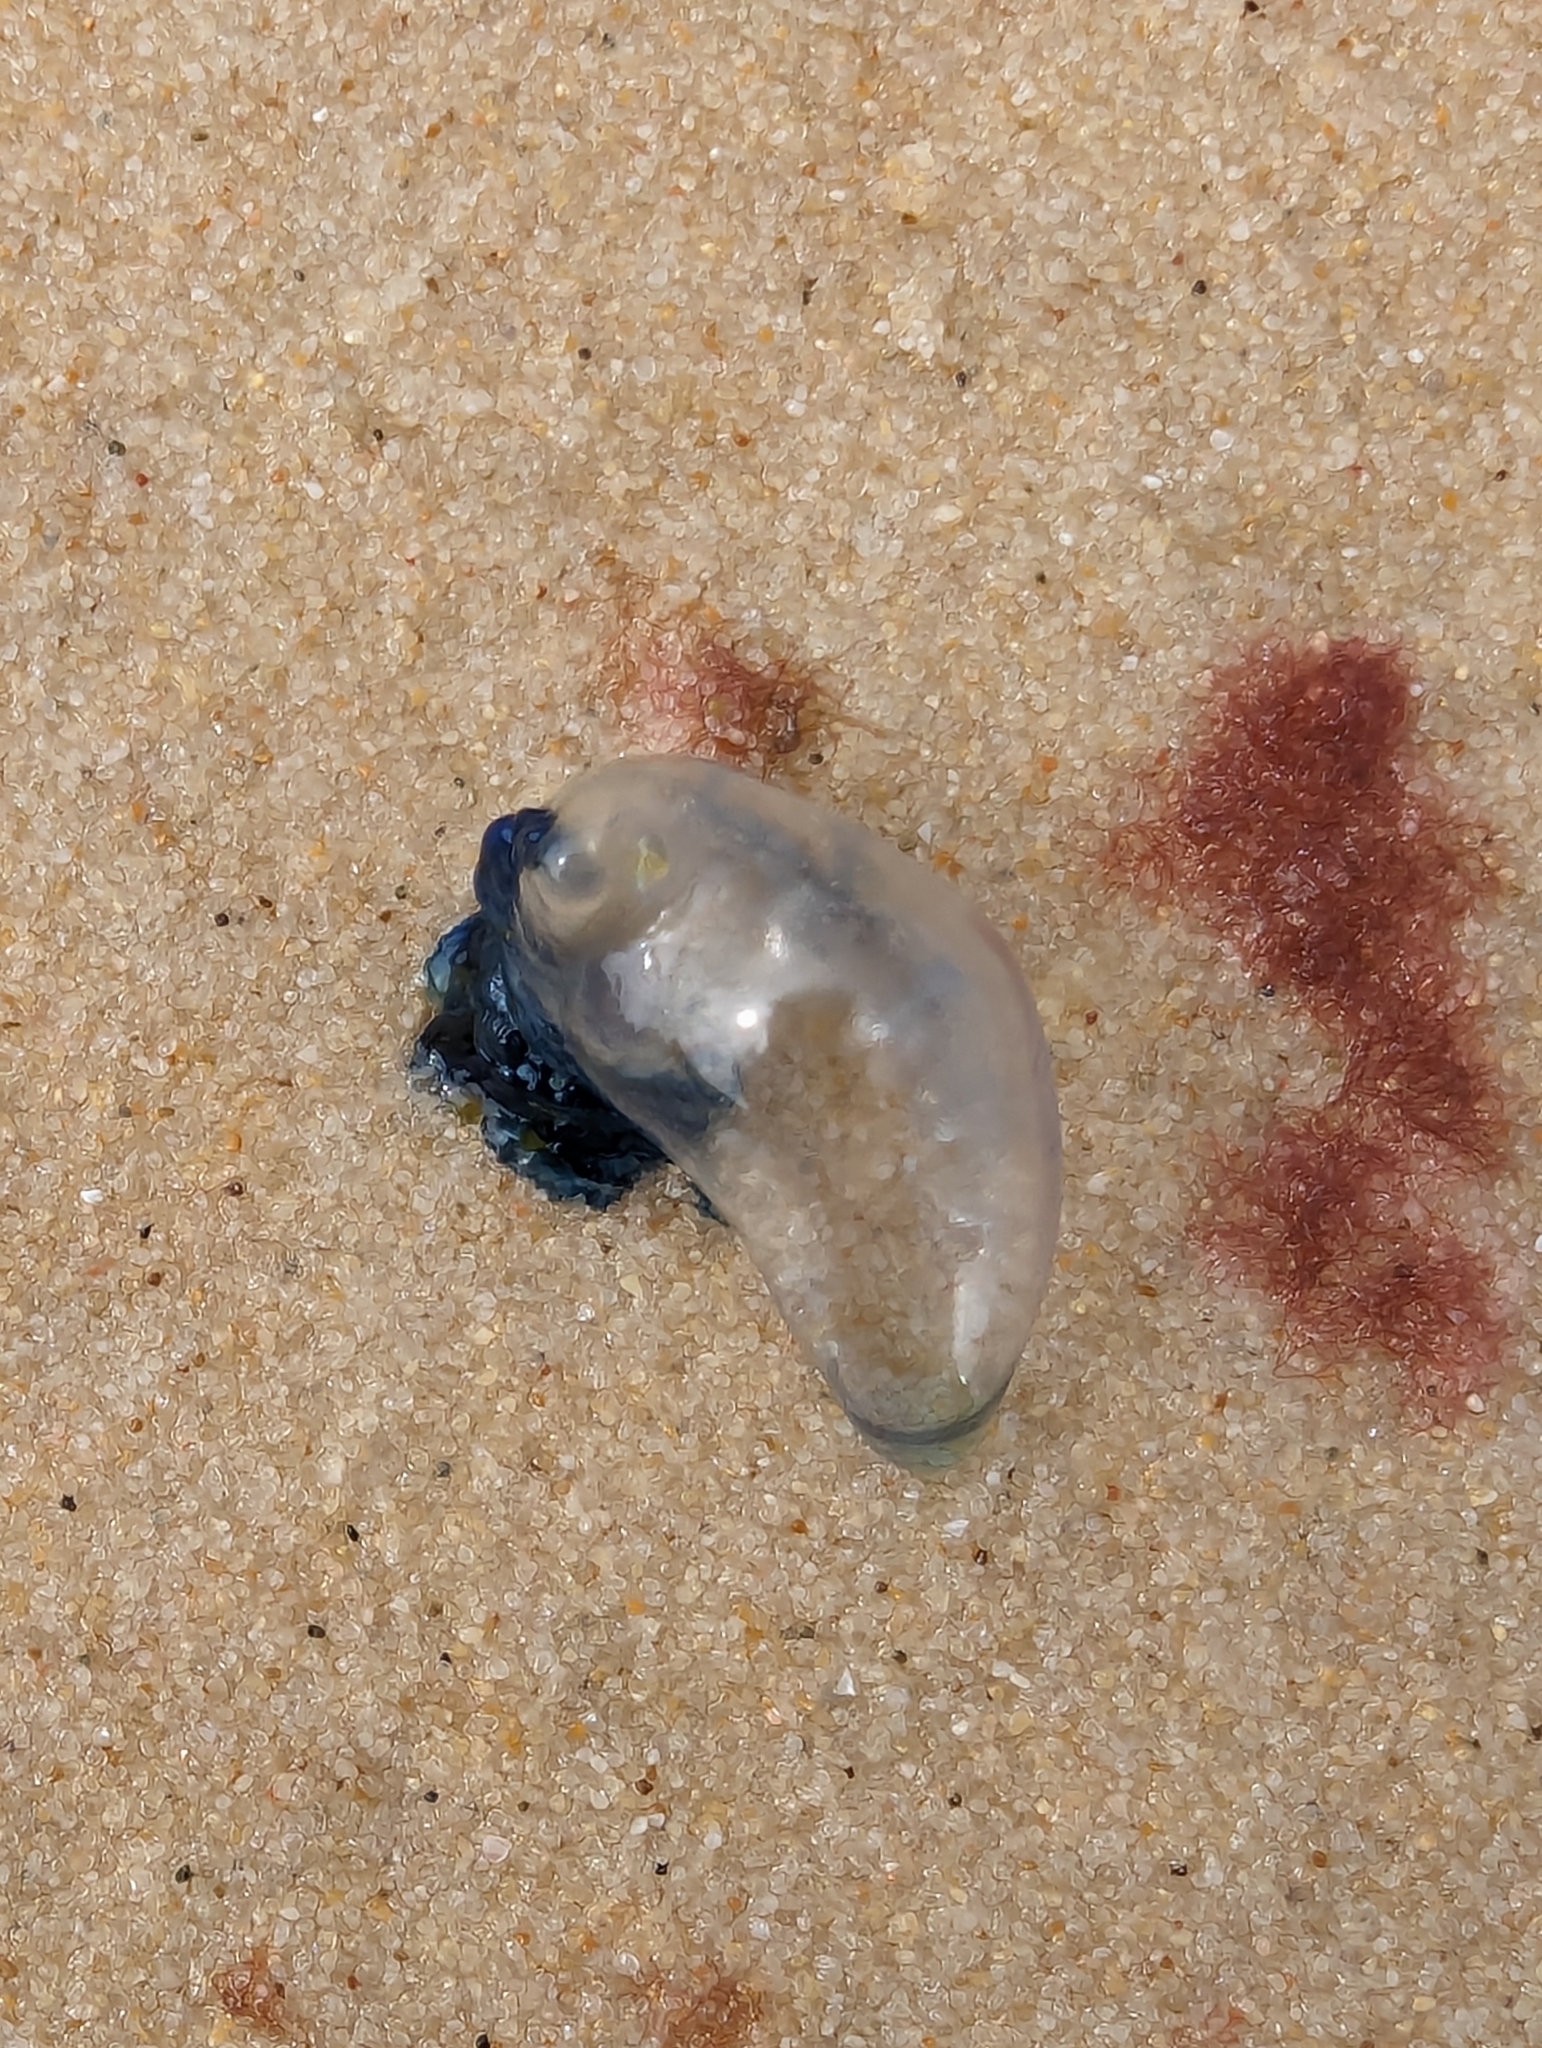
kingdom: Animalia
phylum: Cnidaria
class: Hydrozoa
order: Siphonophorae
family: Physaliidae
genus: Physalia
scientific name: Physalia physalis
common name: Portuguese man-of-war
